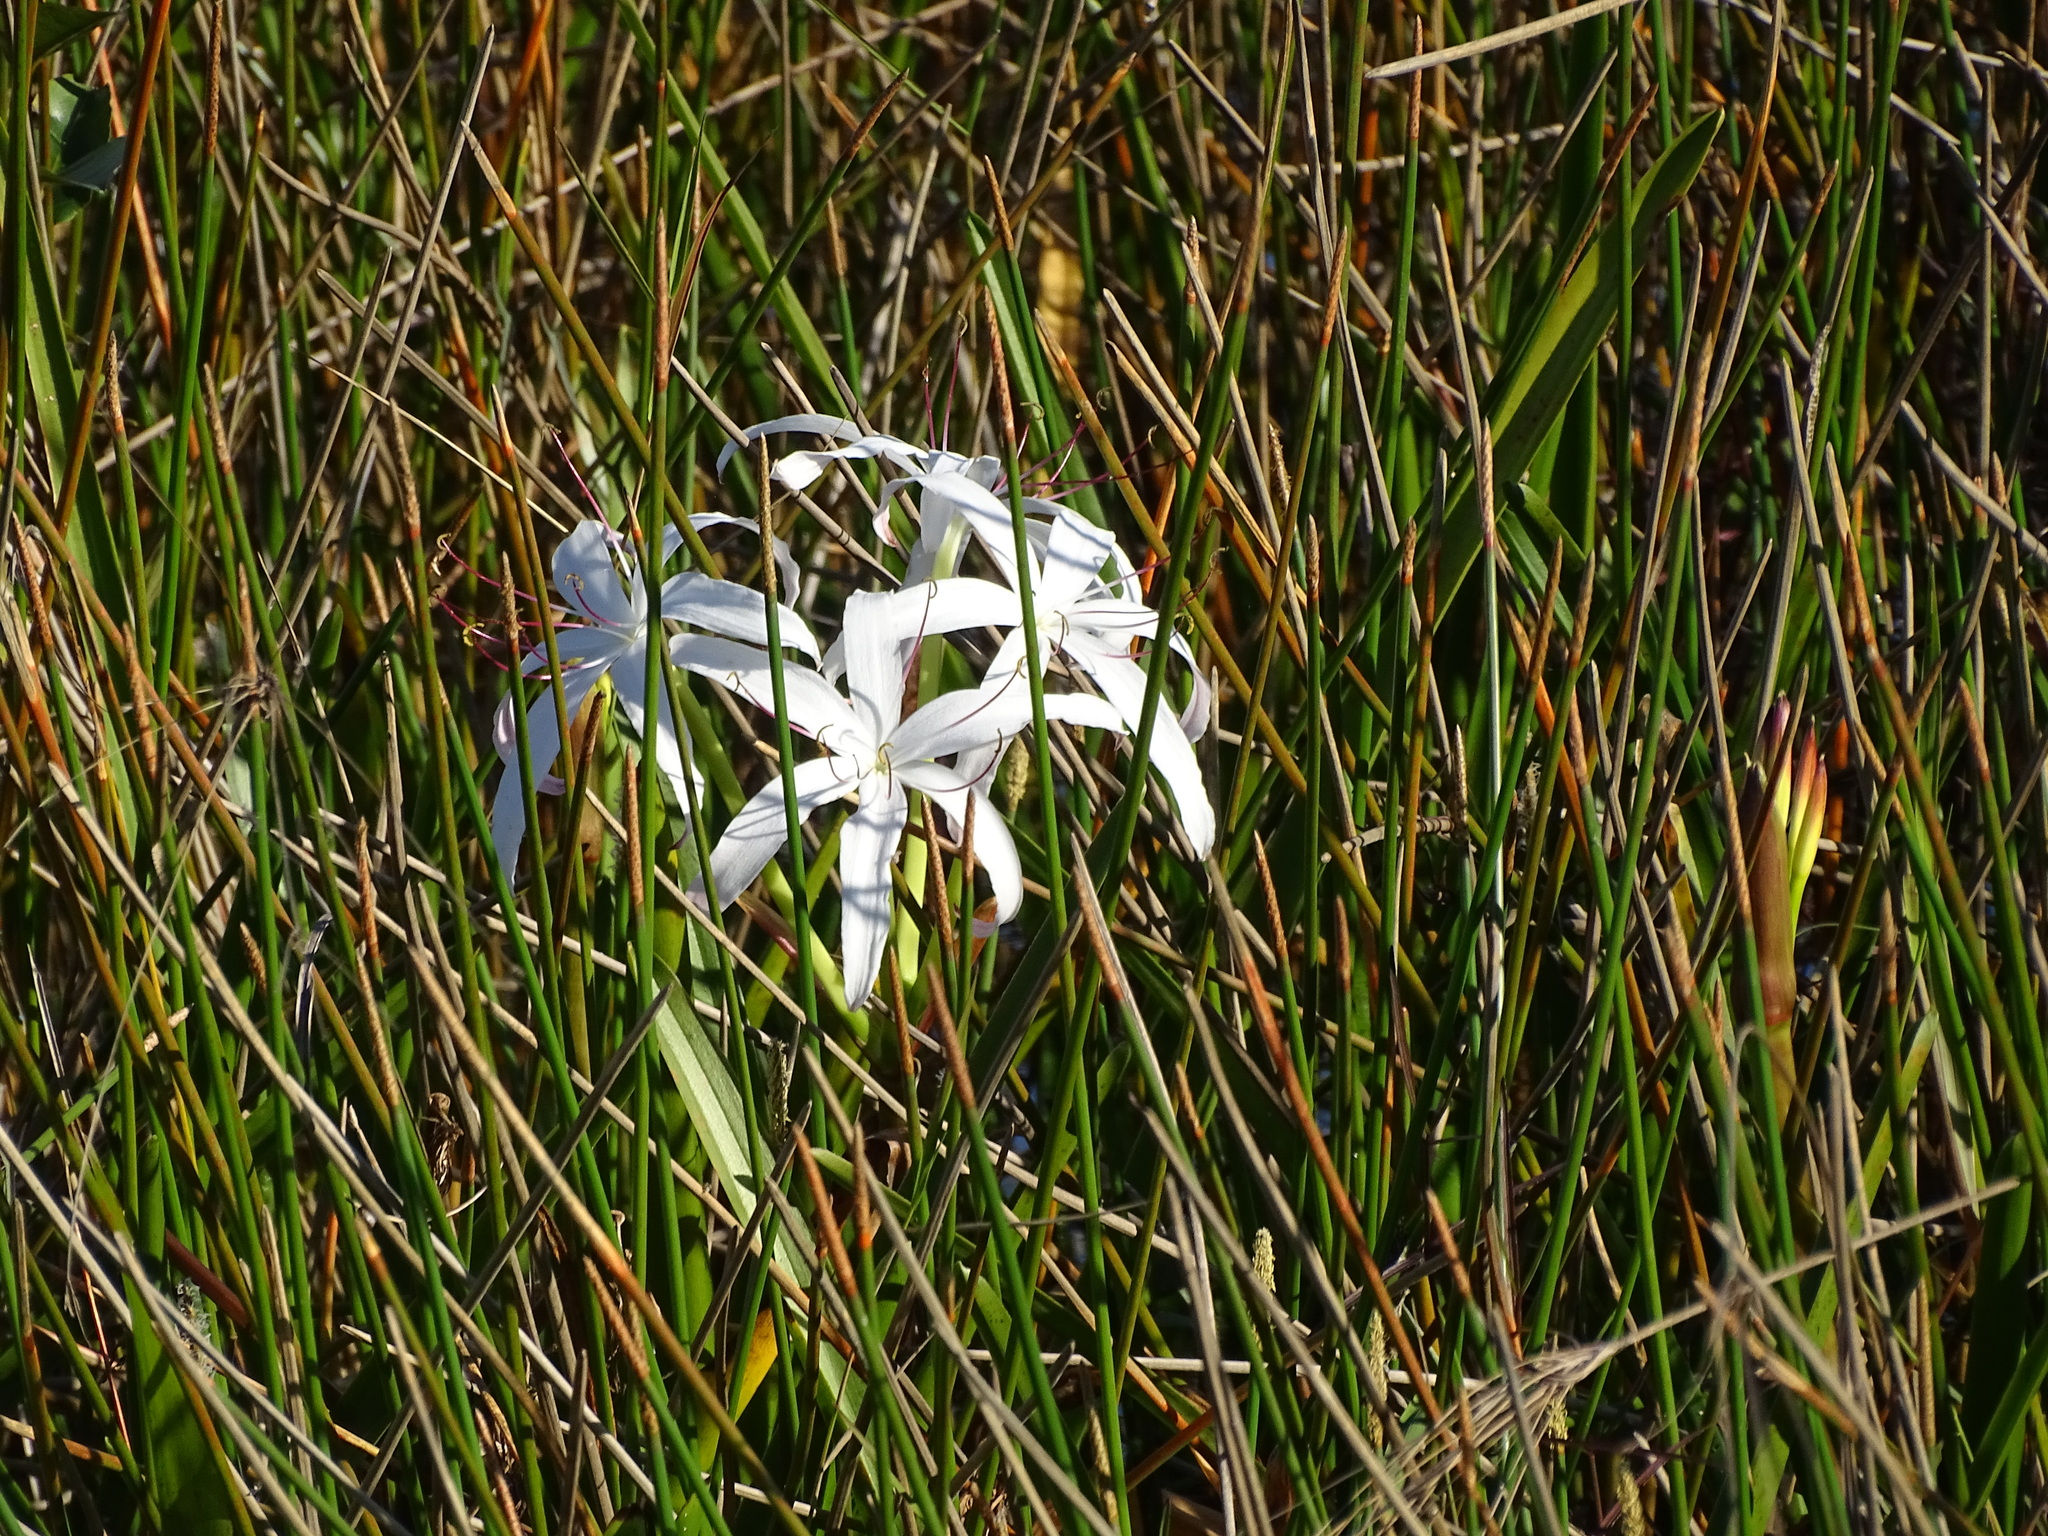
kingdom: Plantae
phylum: Tracheophyta
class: Liliopsida
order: Asparagales
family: Amaryllidaceae
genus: Crinum
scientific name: Crinum americanum
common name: Florida swamp-lily
